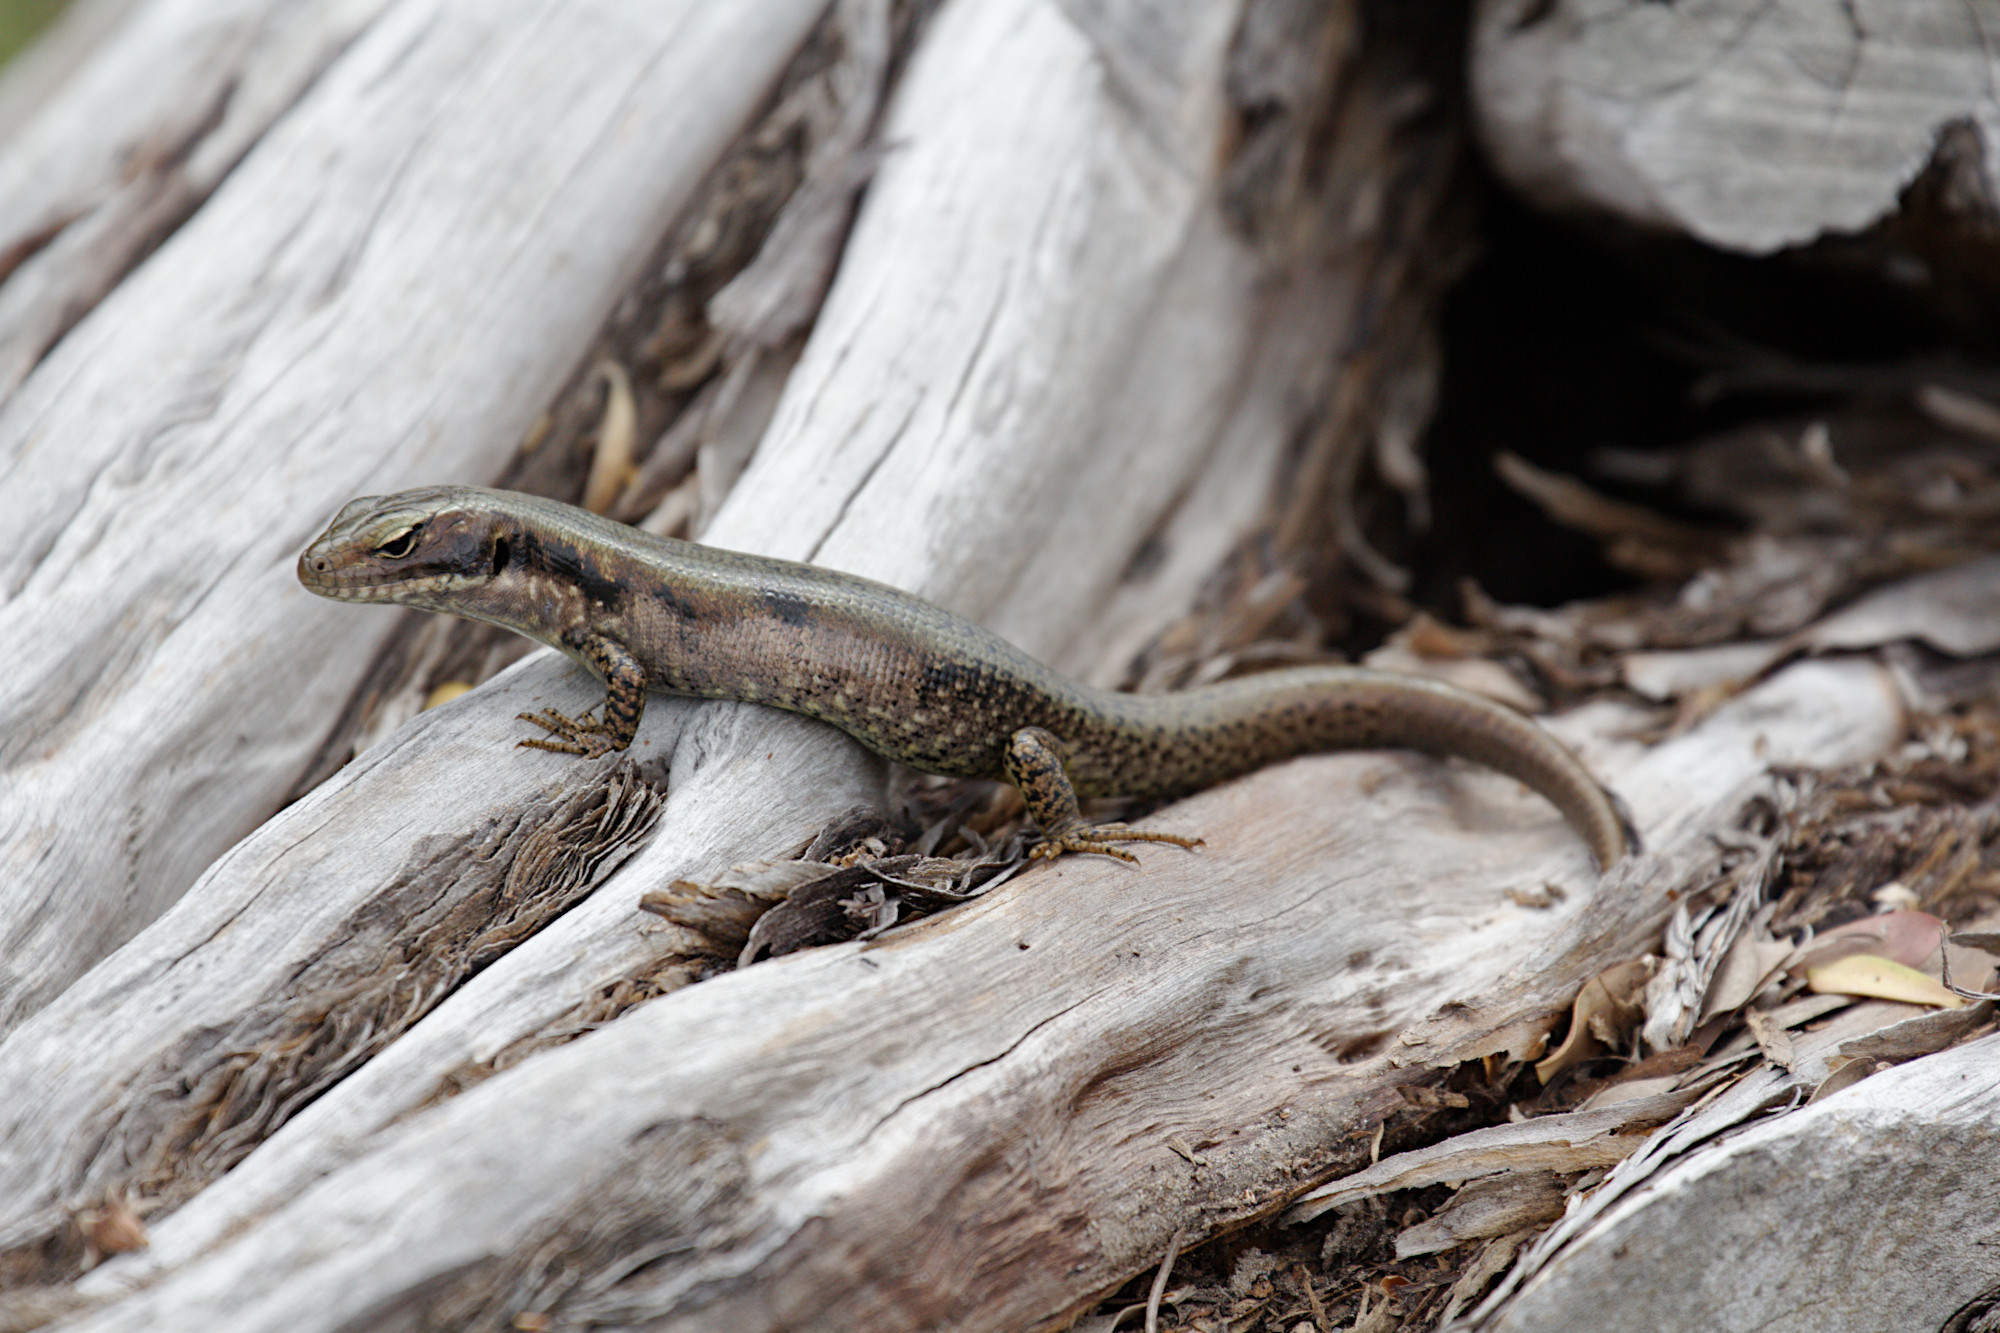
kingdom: Animalia
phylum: Chordata
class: Squamata
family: Scincidae
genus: Eulamprus
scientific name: Eulamprus tympanum
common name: Cool-temperate water-skink
